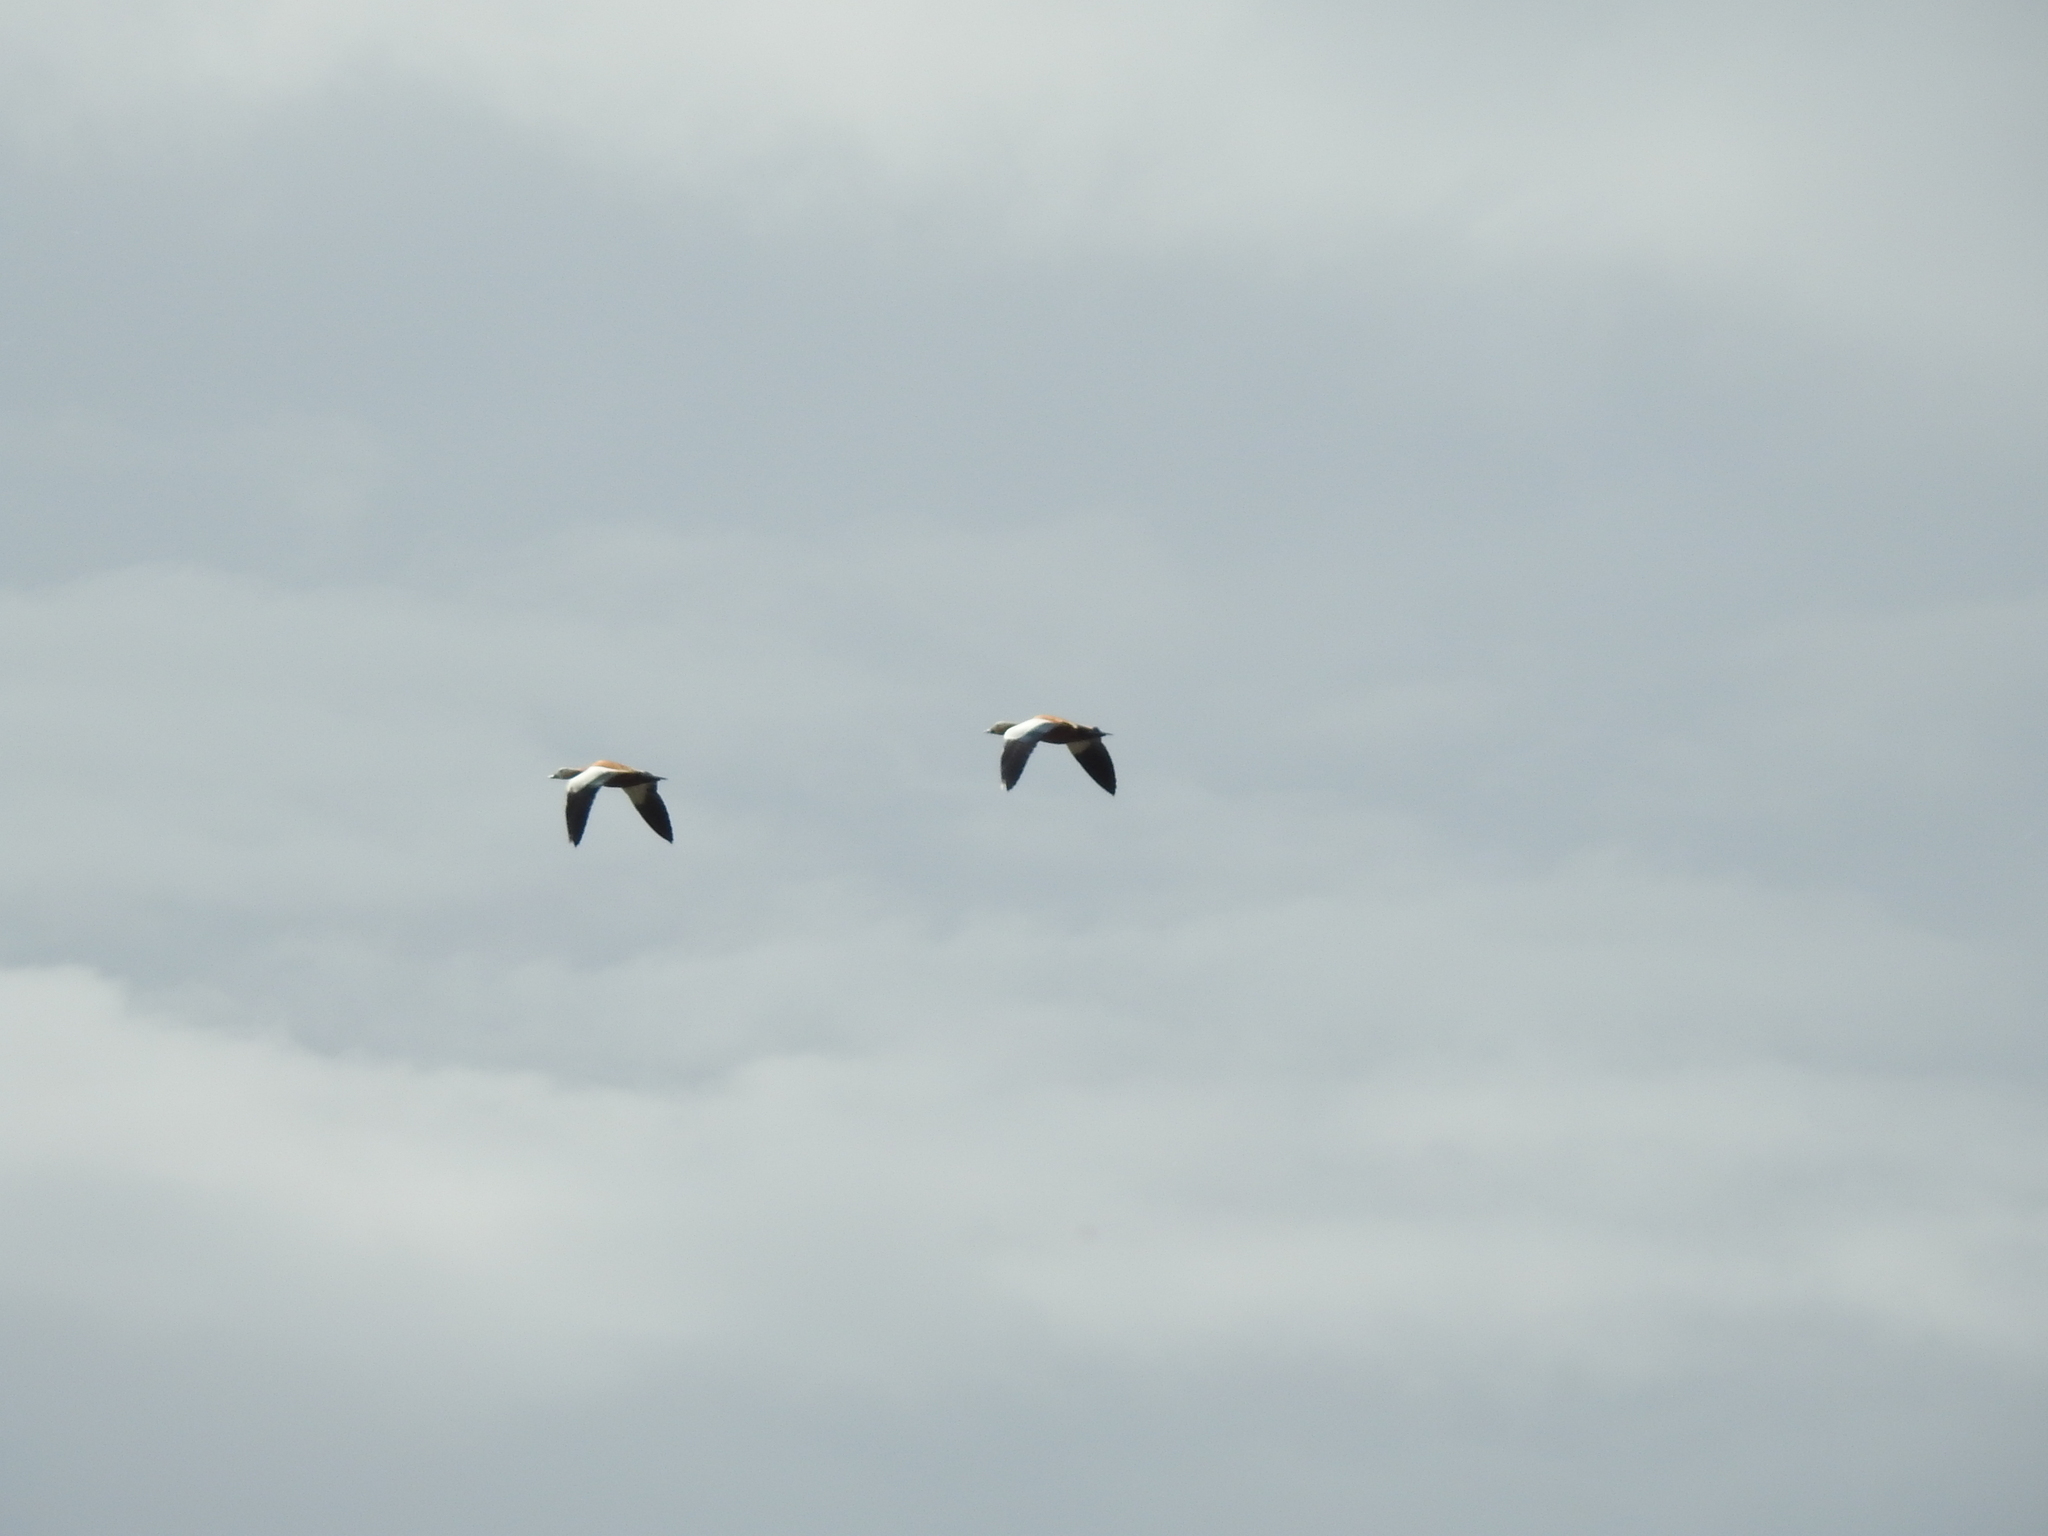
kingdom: Animalia
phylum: Chordata
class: Aves
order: Anseriformes
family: Anatidae
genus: Tadorna
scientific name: Tadorna ferruginea
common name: Ruddy shelduck
